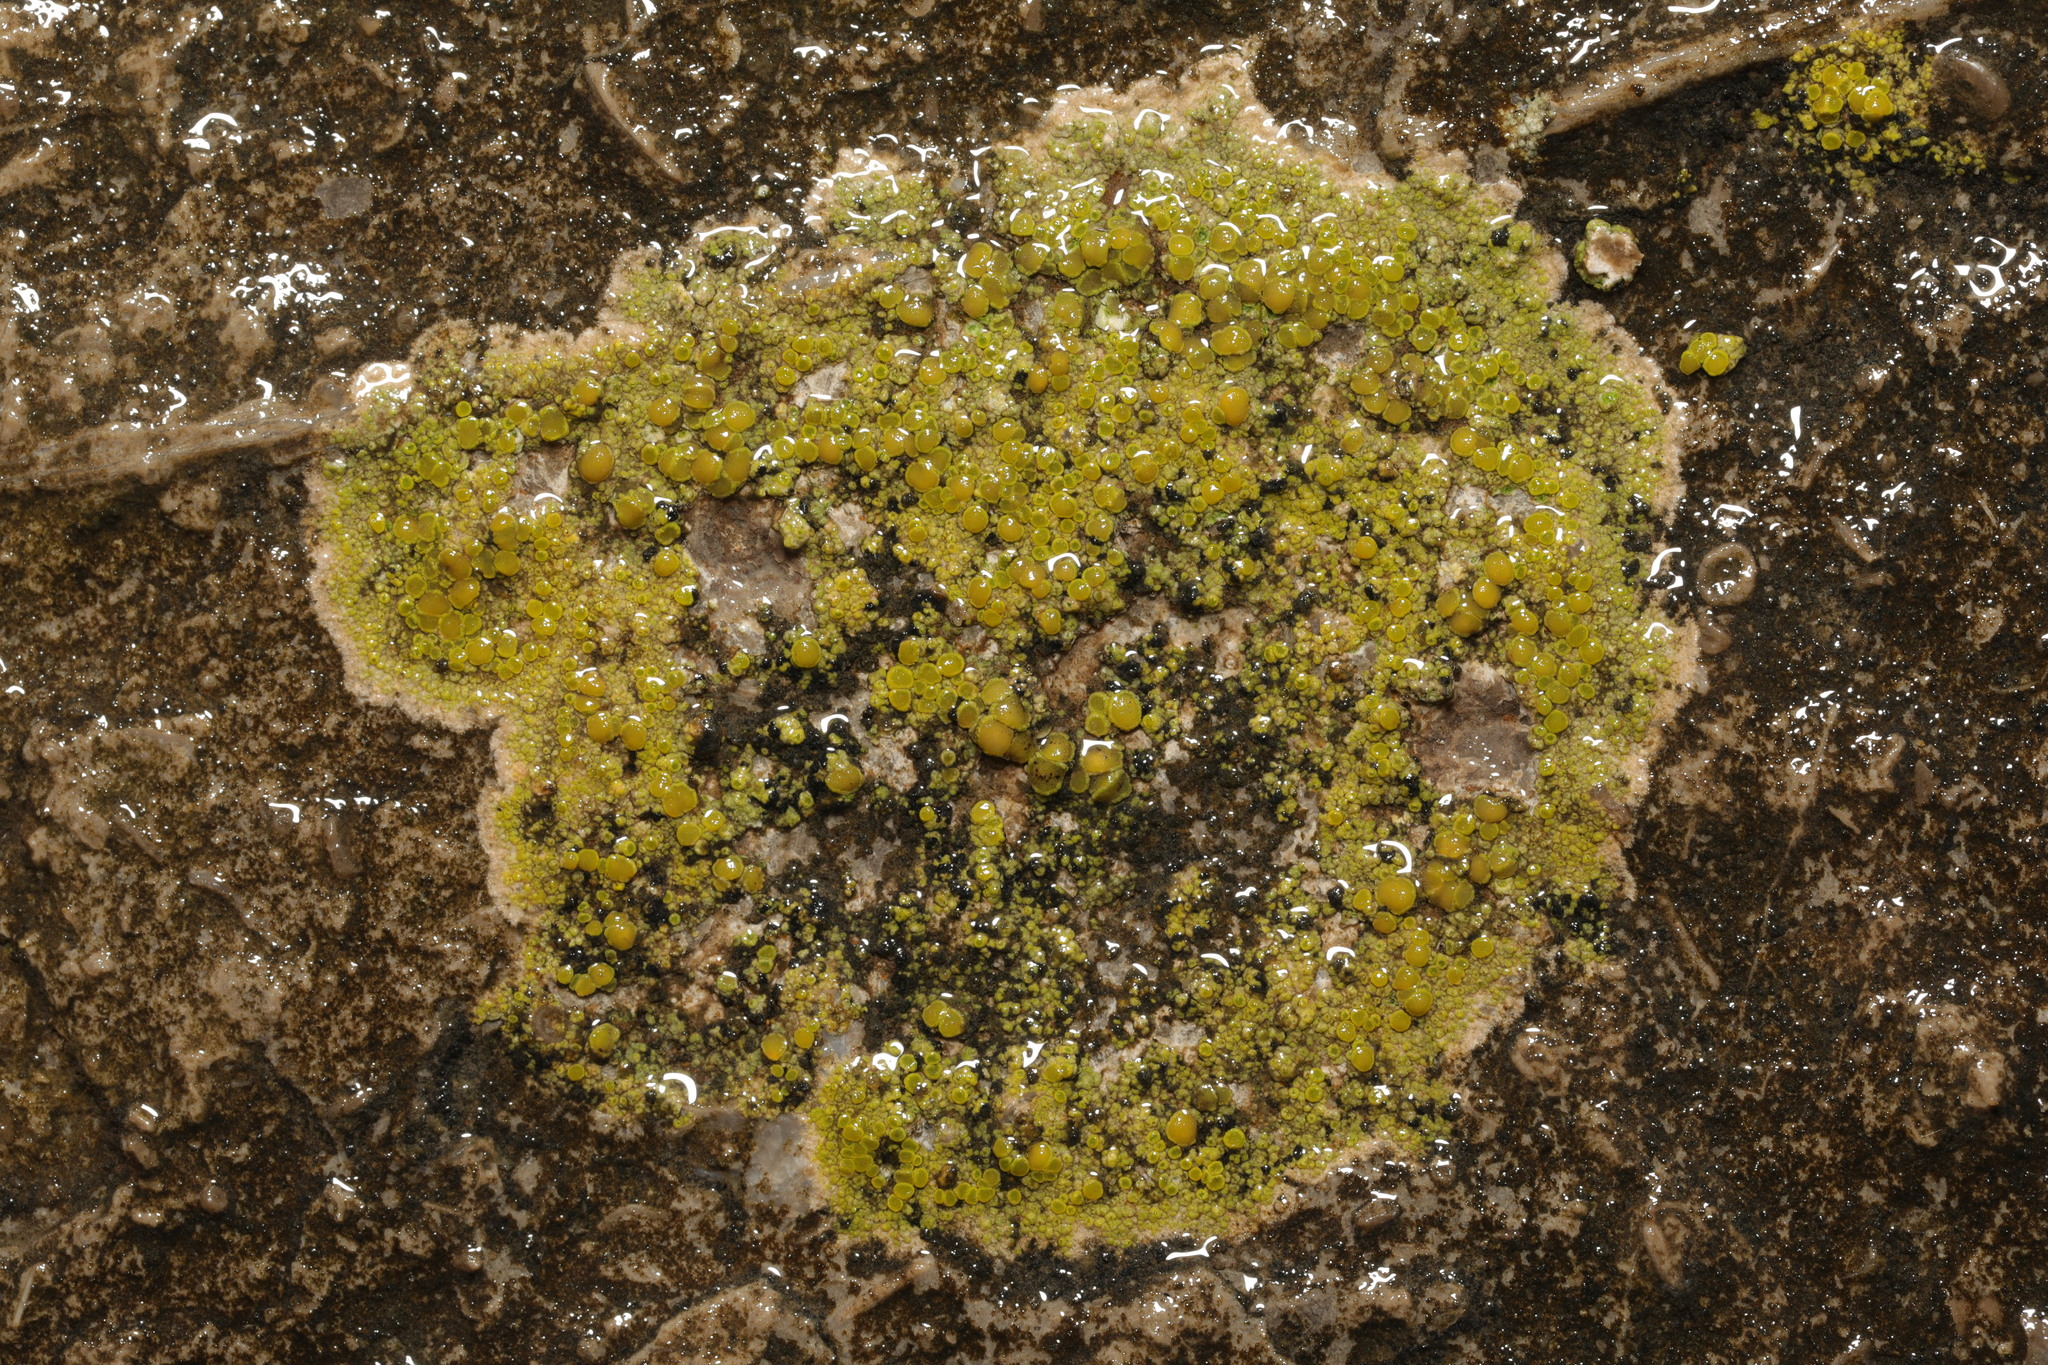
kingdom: Fungi
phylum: Ascomycota
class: Lecanoromycetes
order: Teloschistales
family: Teloschistaceae
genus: Flavoplaca
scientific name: Flavoplaca maritima
